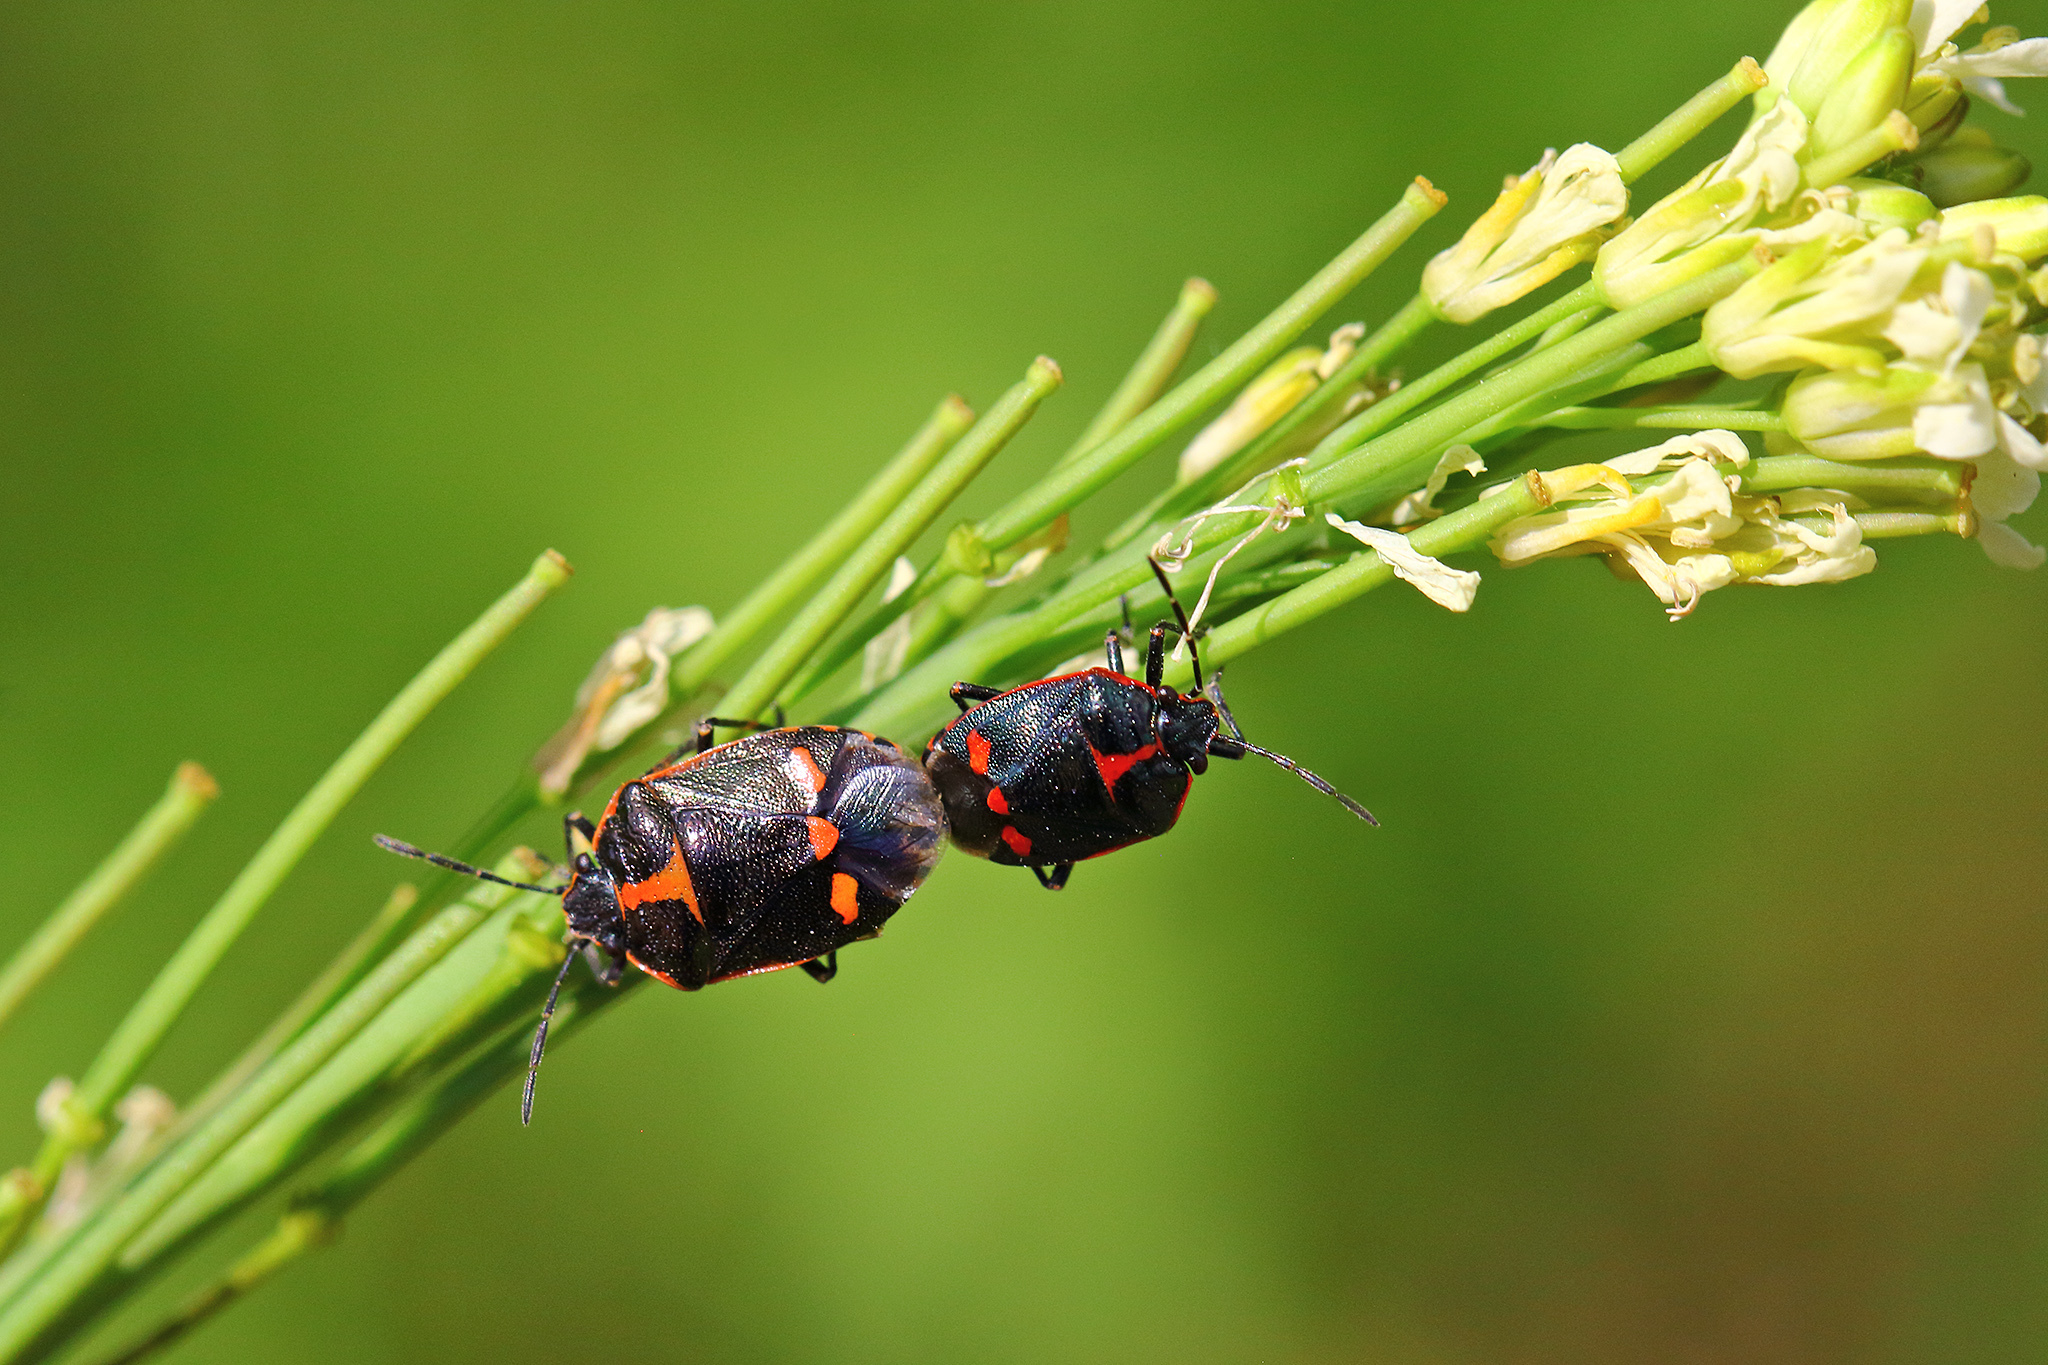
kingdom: Animalia
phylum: Arthropoda
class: Insecta
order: Hemiptera
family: Pentatomidae
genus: Eurydema
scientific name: Eurydema oleracea
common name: Cabbage bug
